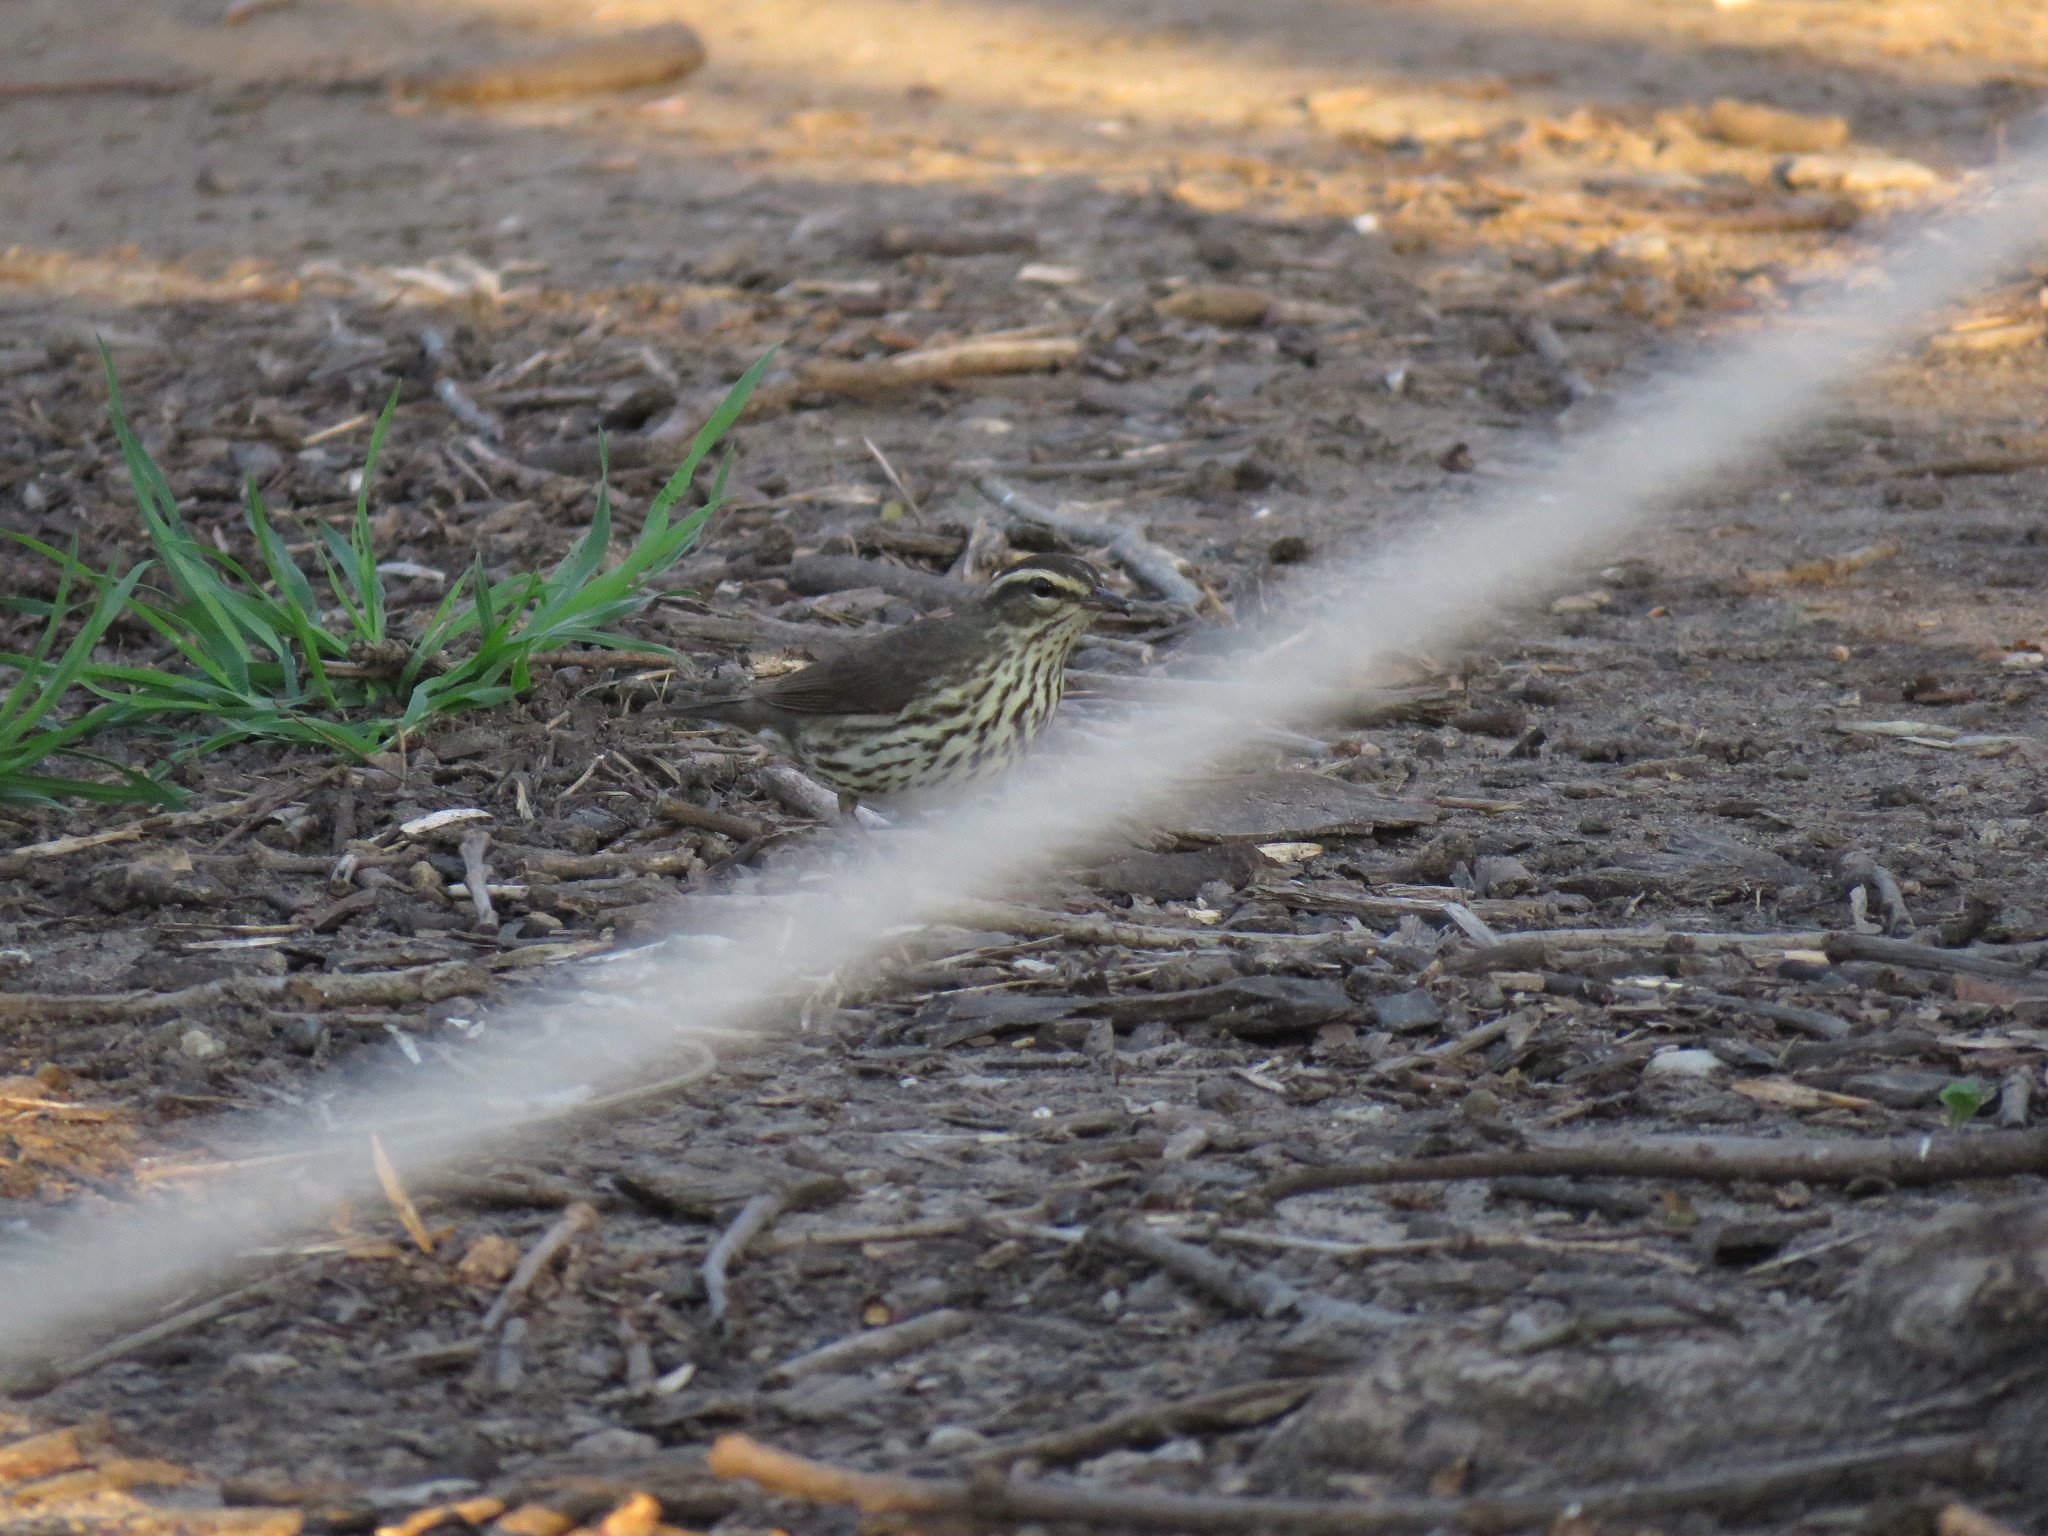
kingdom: Animalia
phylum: Chordata
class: Aves
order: Passeriformes
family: Parulidae
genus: Parkesia
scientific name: Parkesia noveboracensis
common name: Northern waterthrush
